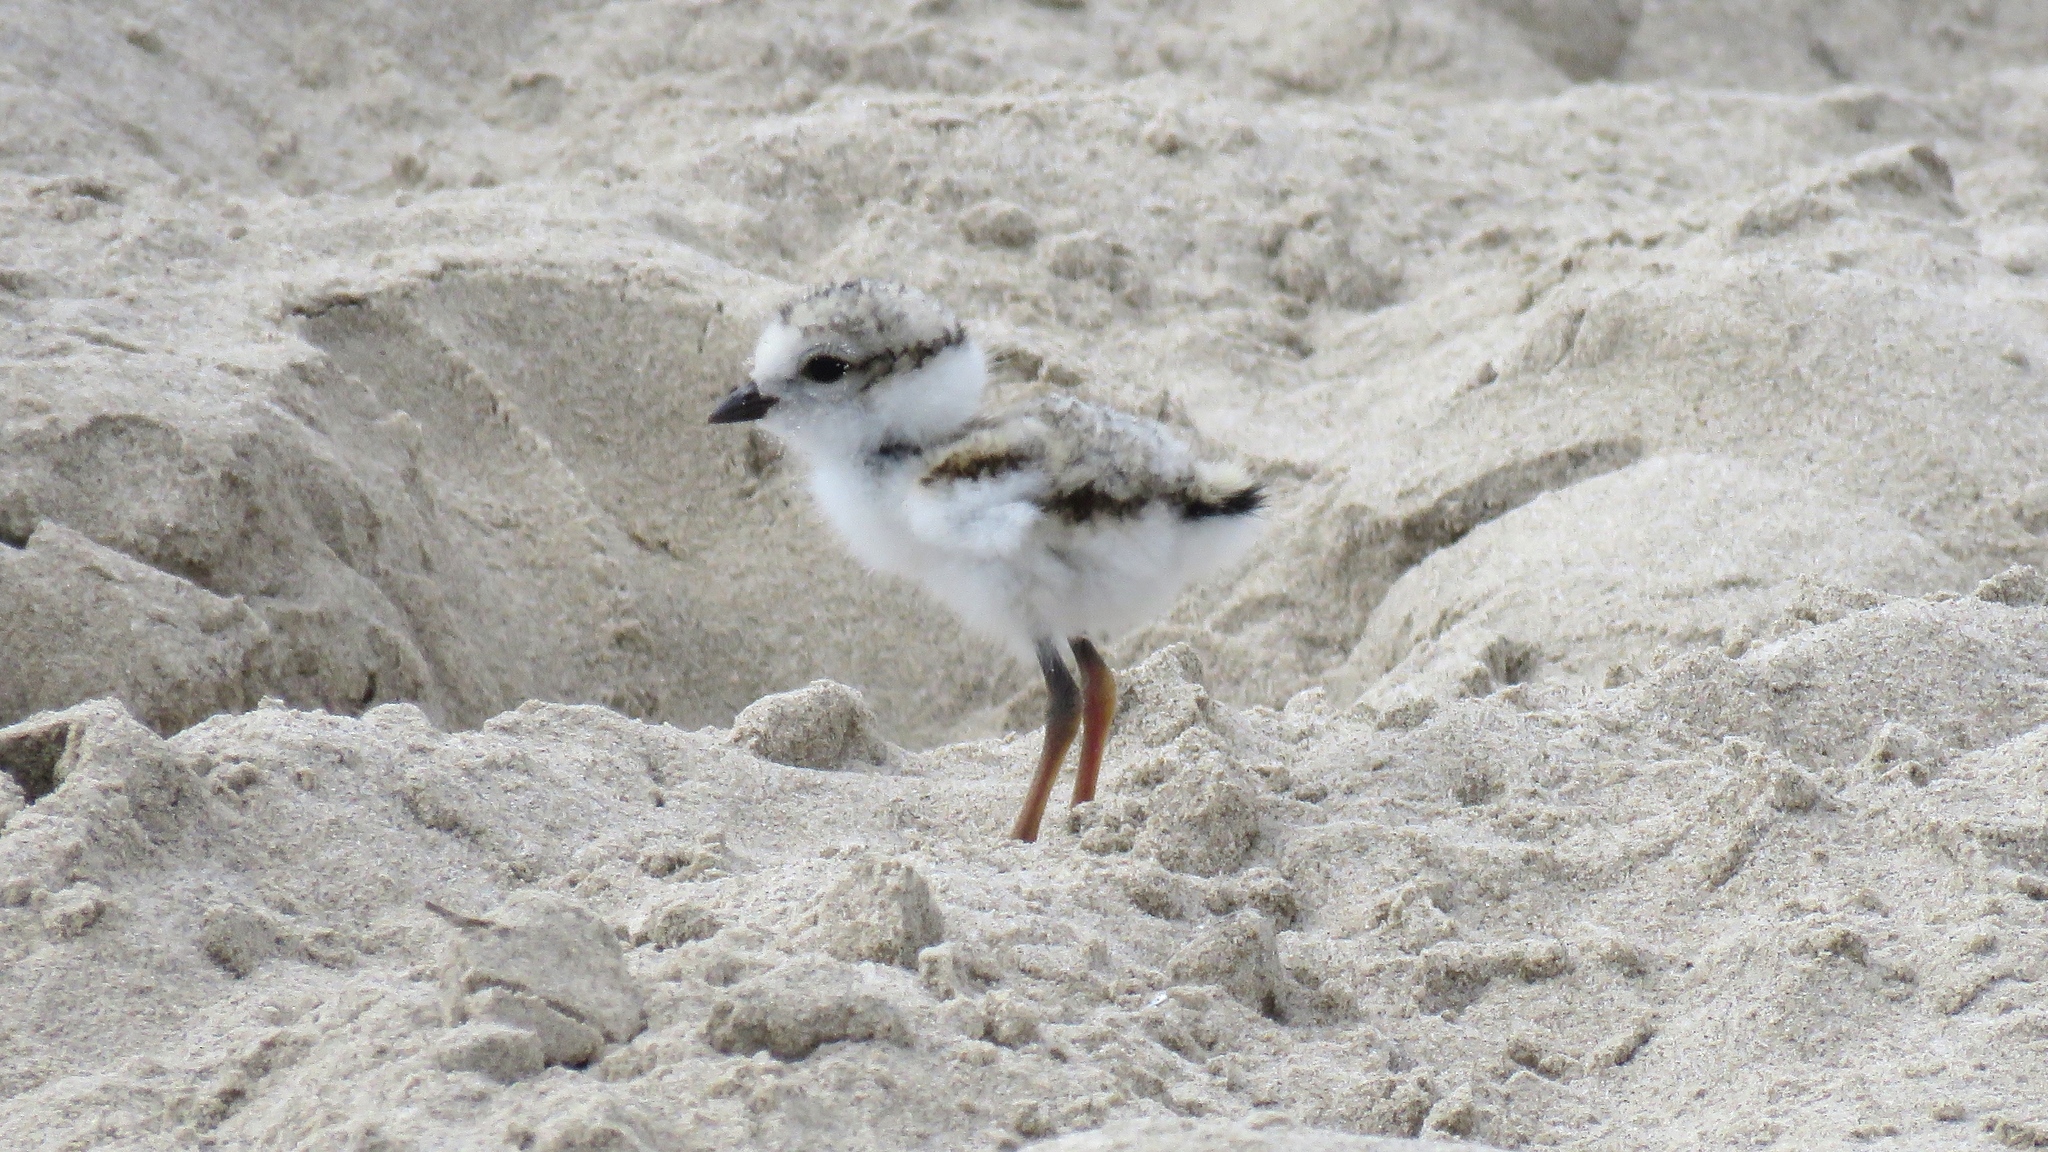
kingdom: Animalia
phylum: Chordata
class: Aves
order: Charadriiformes
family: Charadriidae
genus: Charadrius
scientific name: Charadrius melodus
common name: Piping plover
